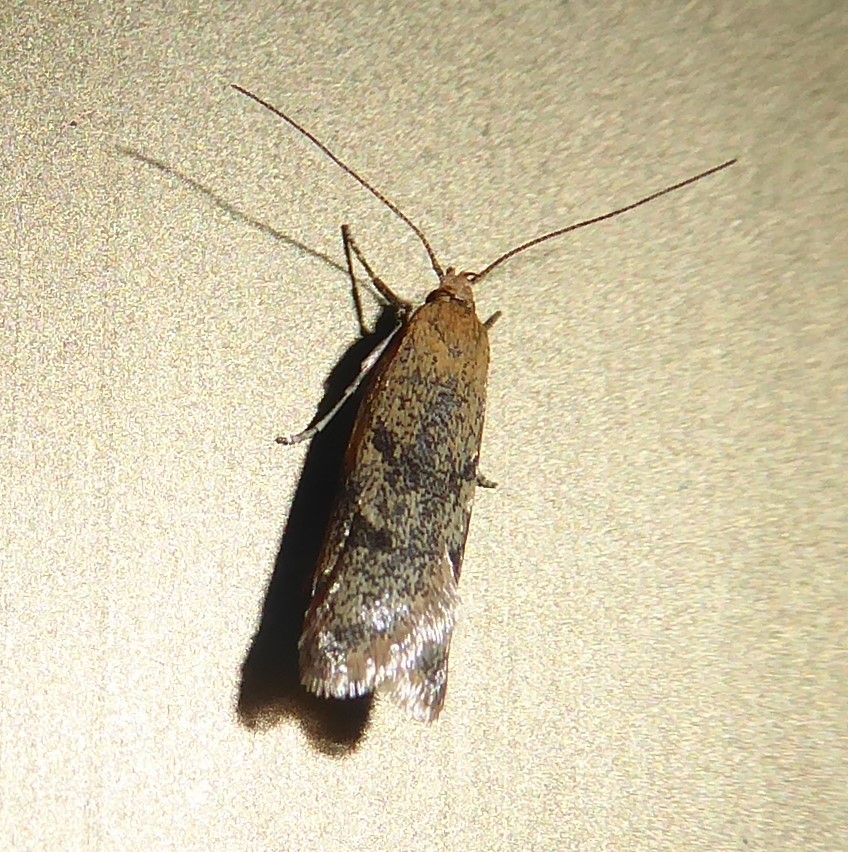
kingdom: Animalia
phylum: Arthropoda
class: Insecta
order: Lepidoptera
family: Oecophoridae
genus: Gymnobathra
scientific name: Gymnobathra tholodella
